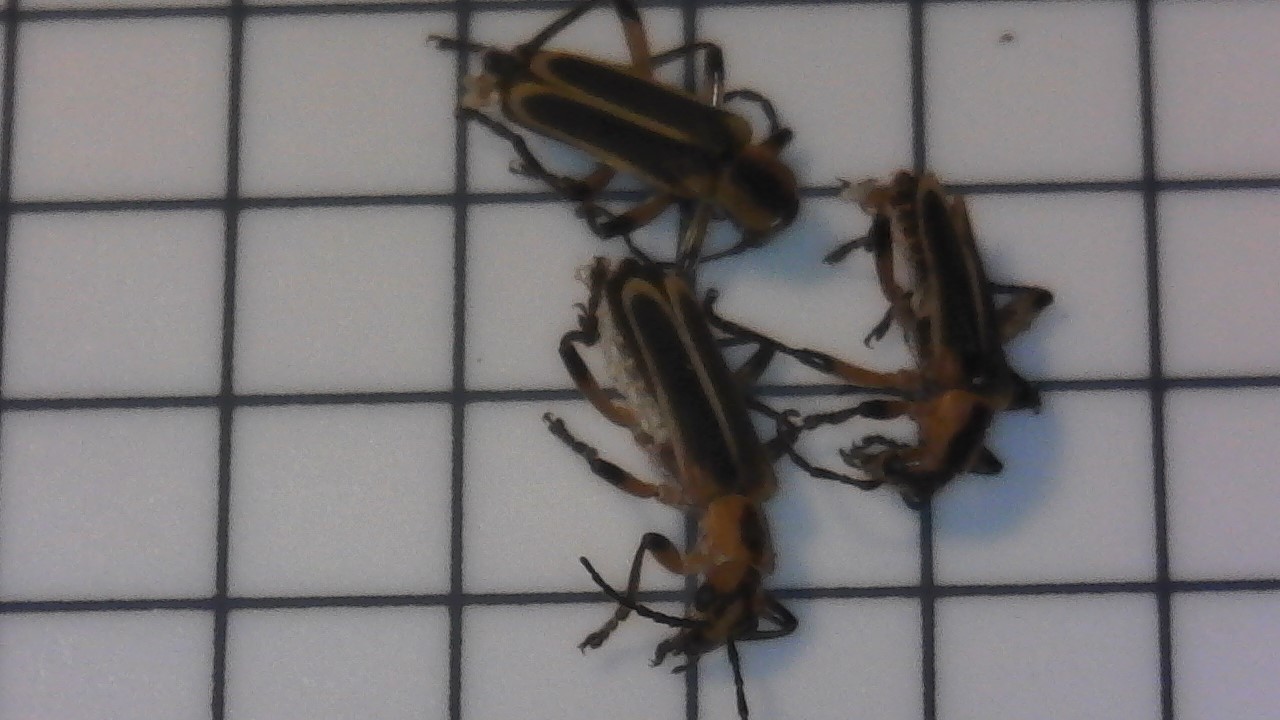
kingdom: Animalia
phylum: Arthropoda
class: Insecta
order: Coleoptera
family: Cantharidae
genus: Chauliognathus
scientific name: Chauliognathus marginatus
